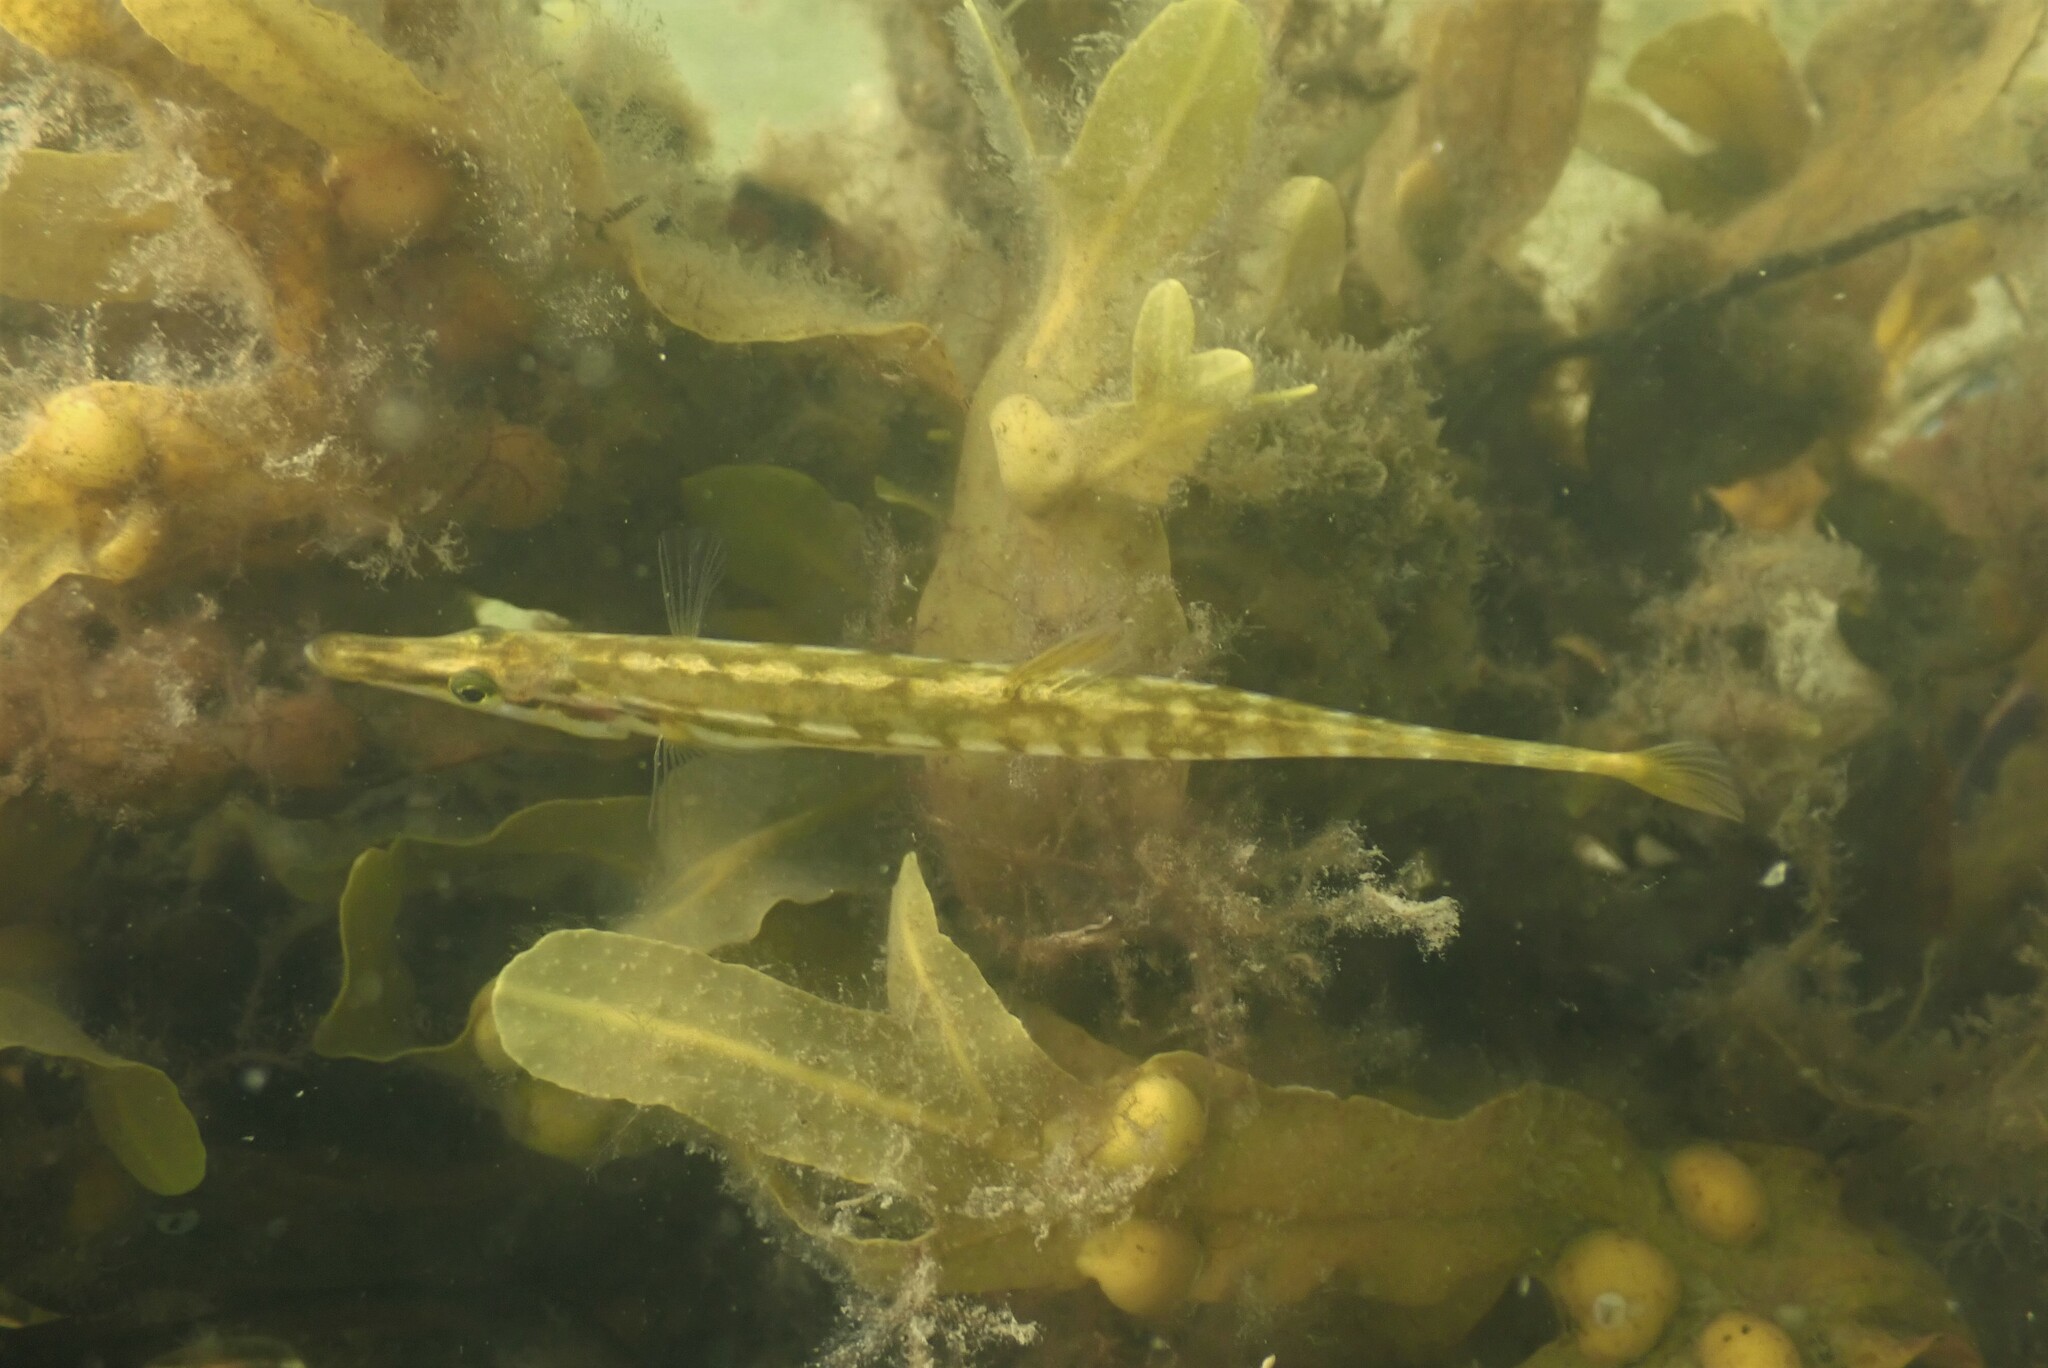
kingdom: Animalia
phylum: Chordata
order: Gasterosteiformes
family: Gasterosteidae
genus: Spinachia
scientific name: Spinachia spinachia
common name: Fifteen-spined stickleback
